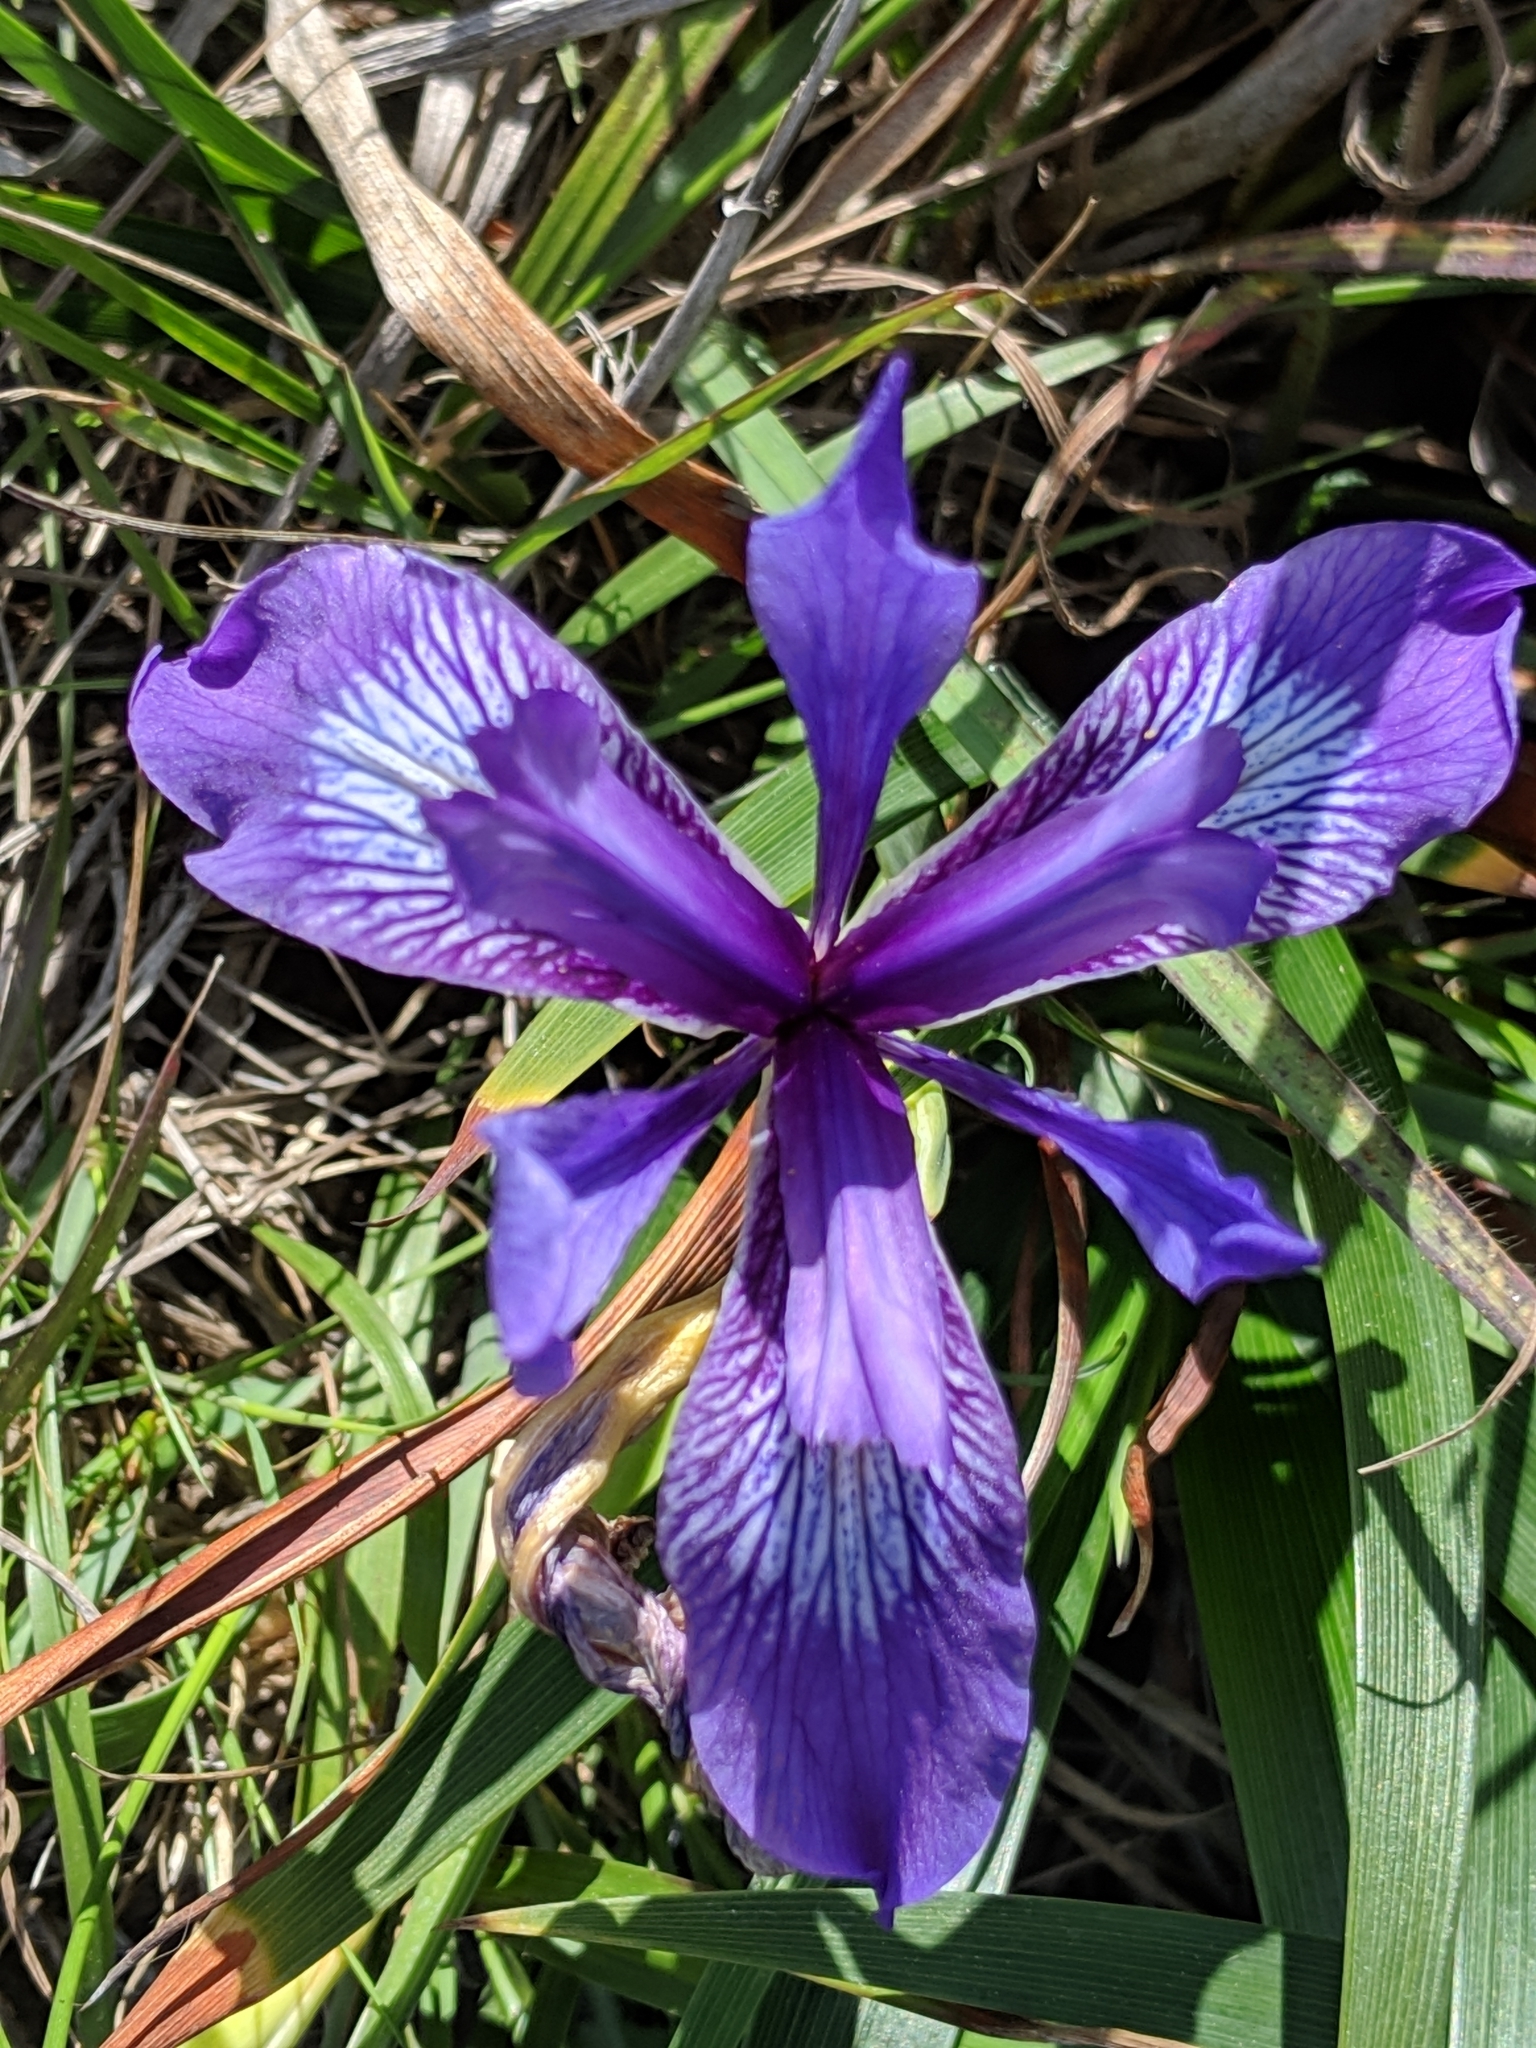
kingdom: Plantae
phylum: Tracheophyta
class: Liliopsida
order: Asparagales
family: Iridaceae
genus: Iris
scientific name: Iris douglasiana
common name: Marin iris
